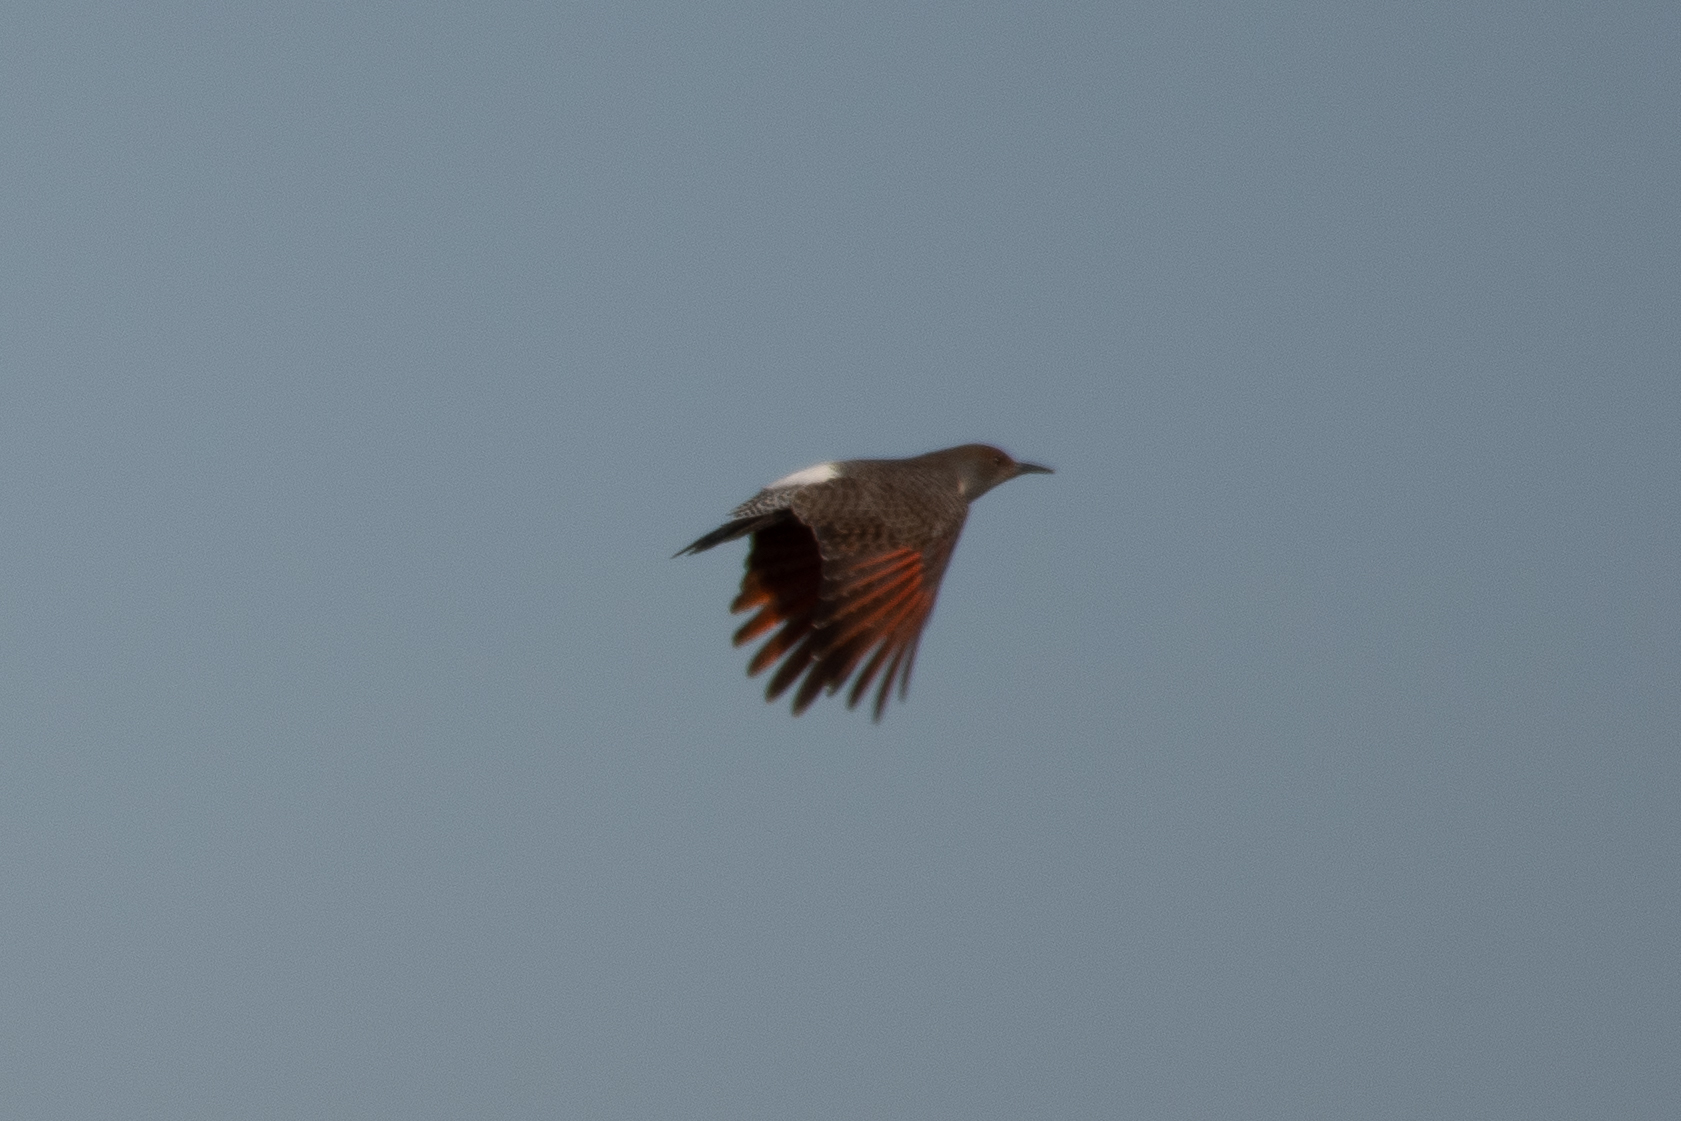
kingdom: Animalia
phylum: Chordata
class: Aves
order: Piciformes
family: Picidae
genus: Colaptes
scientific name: Colaptes auratus
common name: Northern flicker
